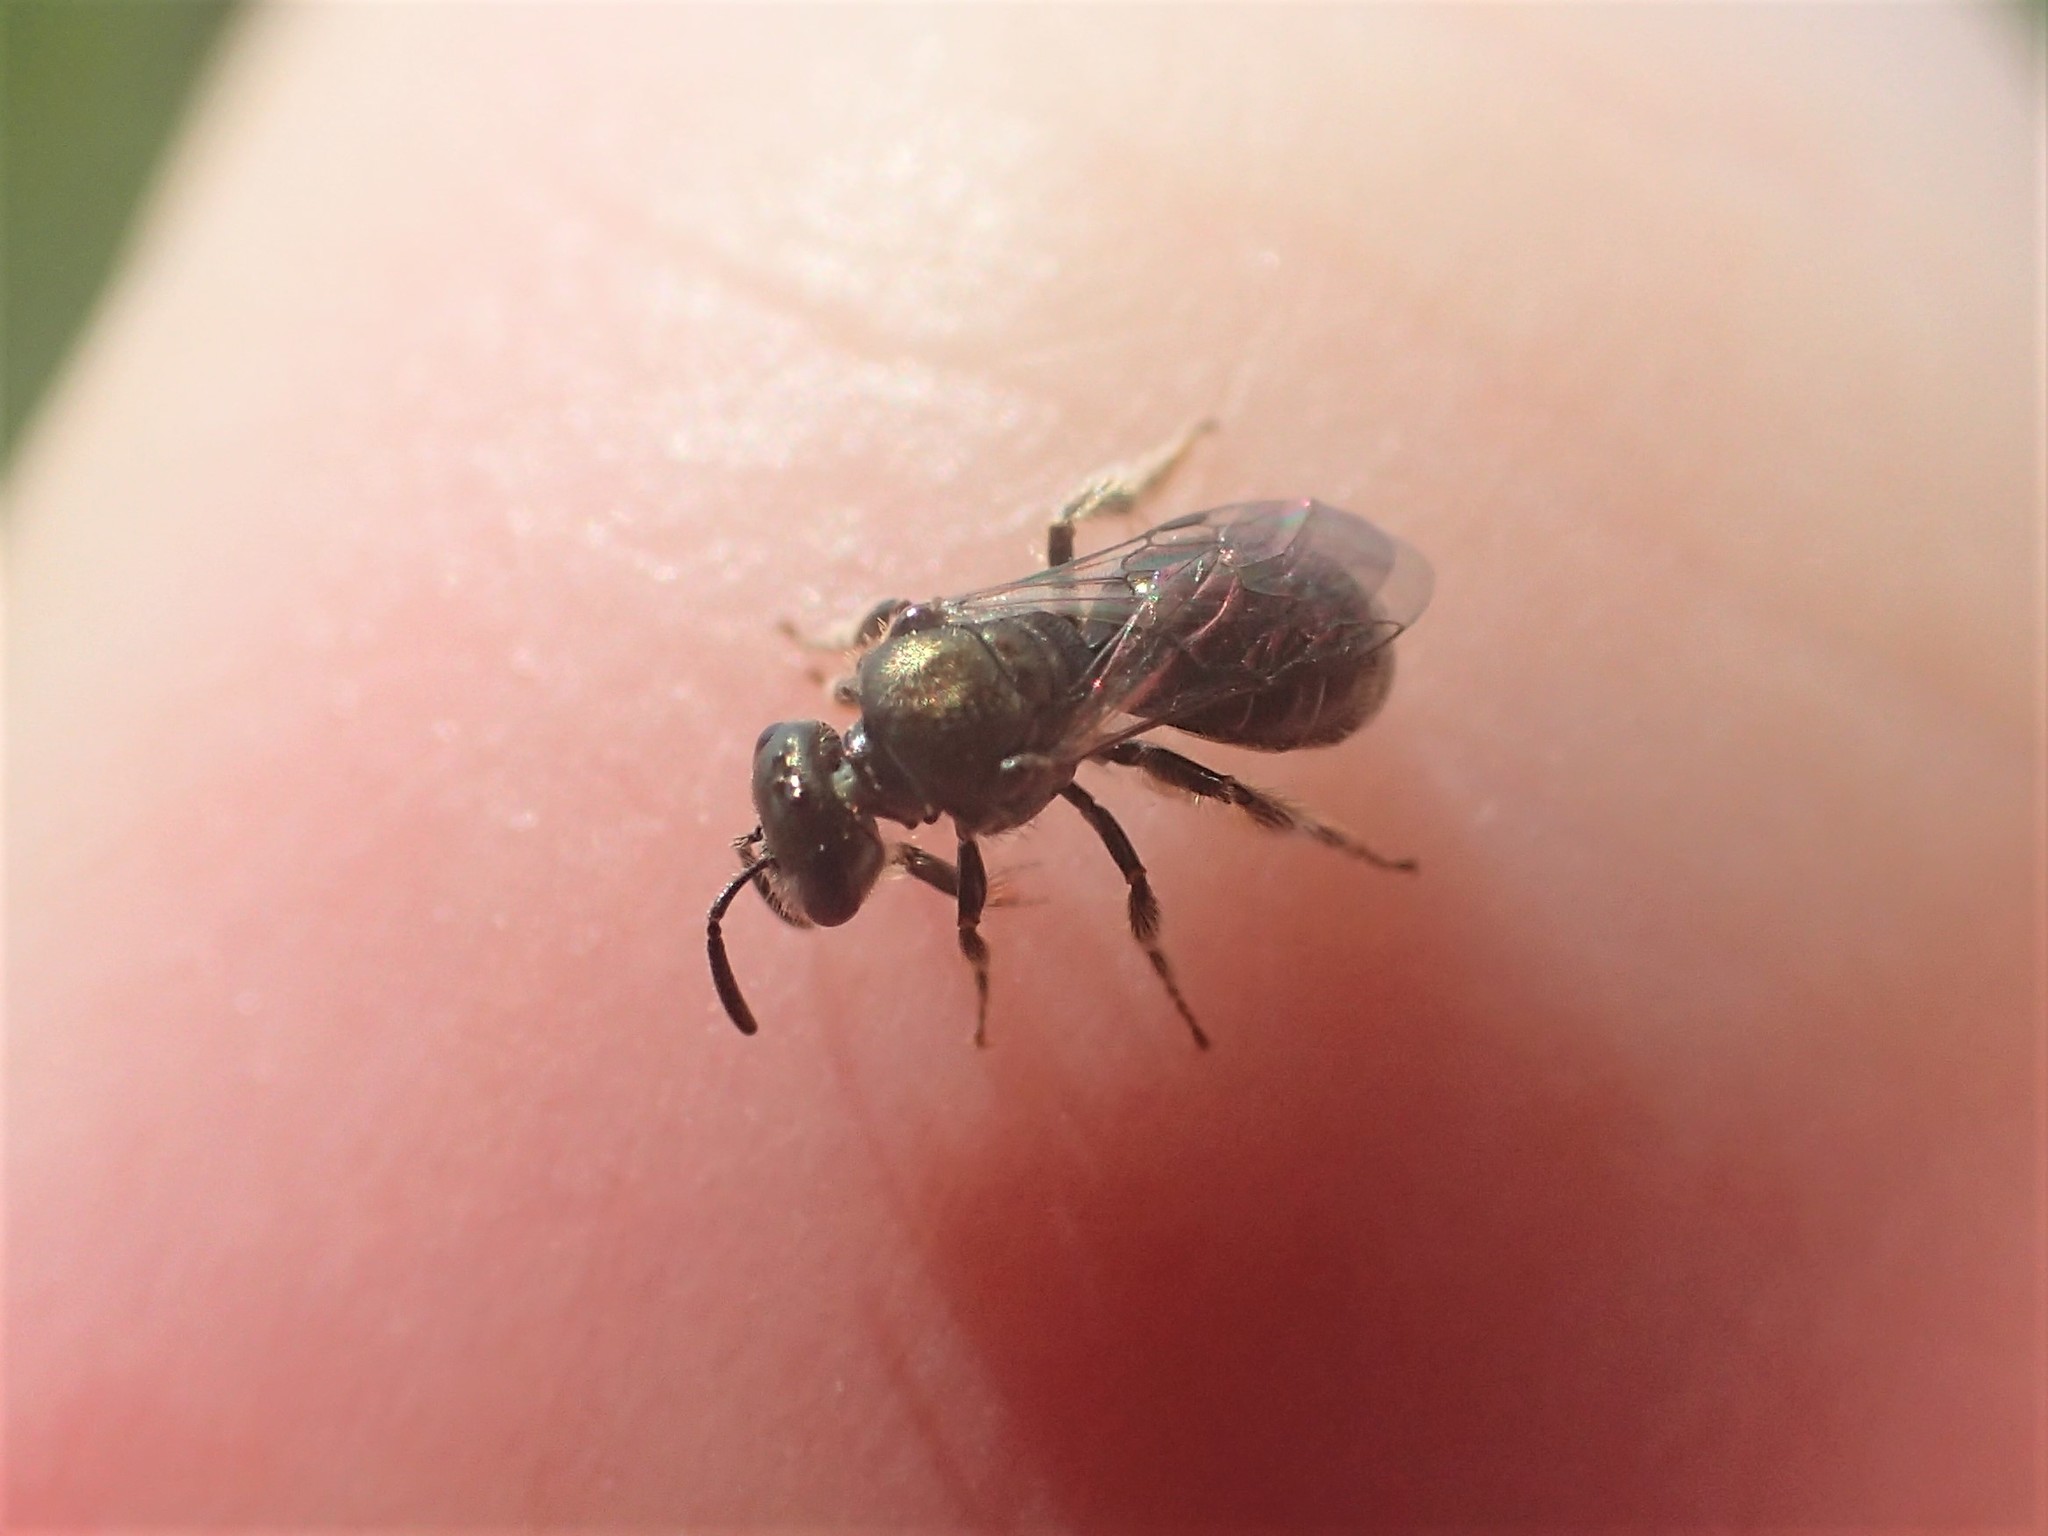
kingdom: Animalia
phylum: Arthropoda
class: Insecta
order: Hymenoptera
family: Halictidae
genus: Dialictus
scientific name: Dialictus
